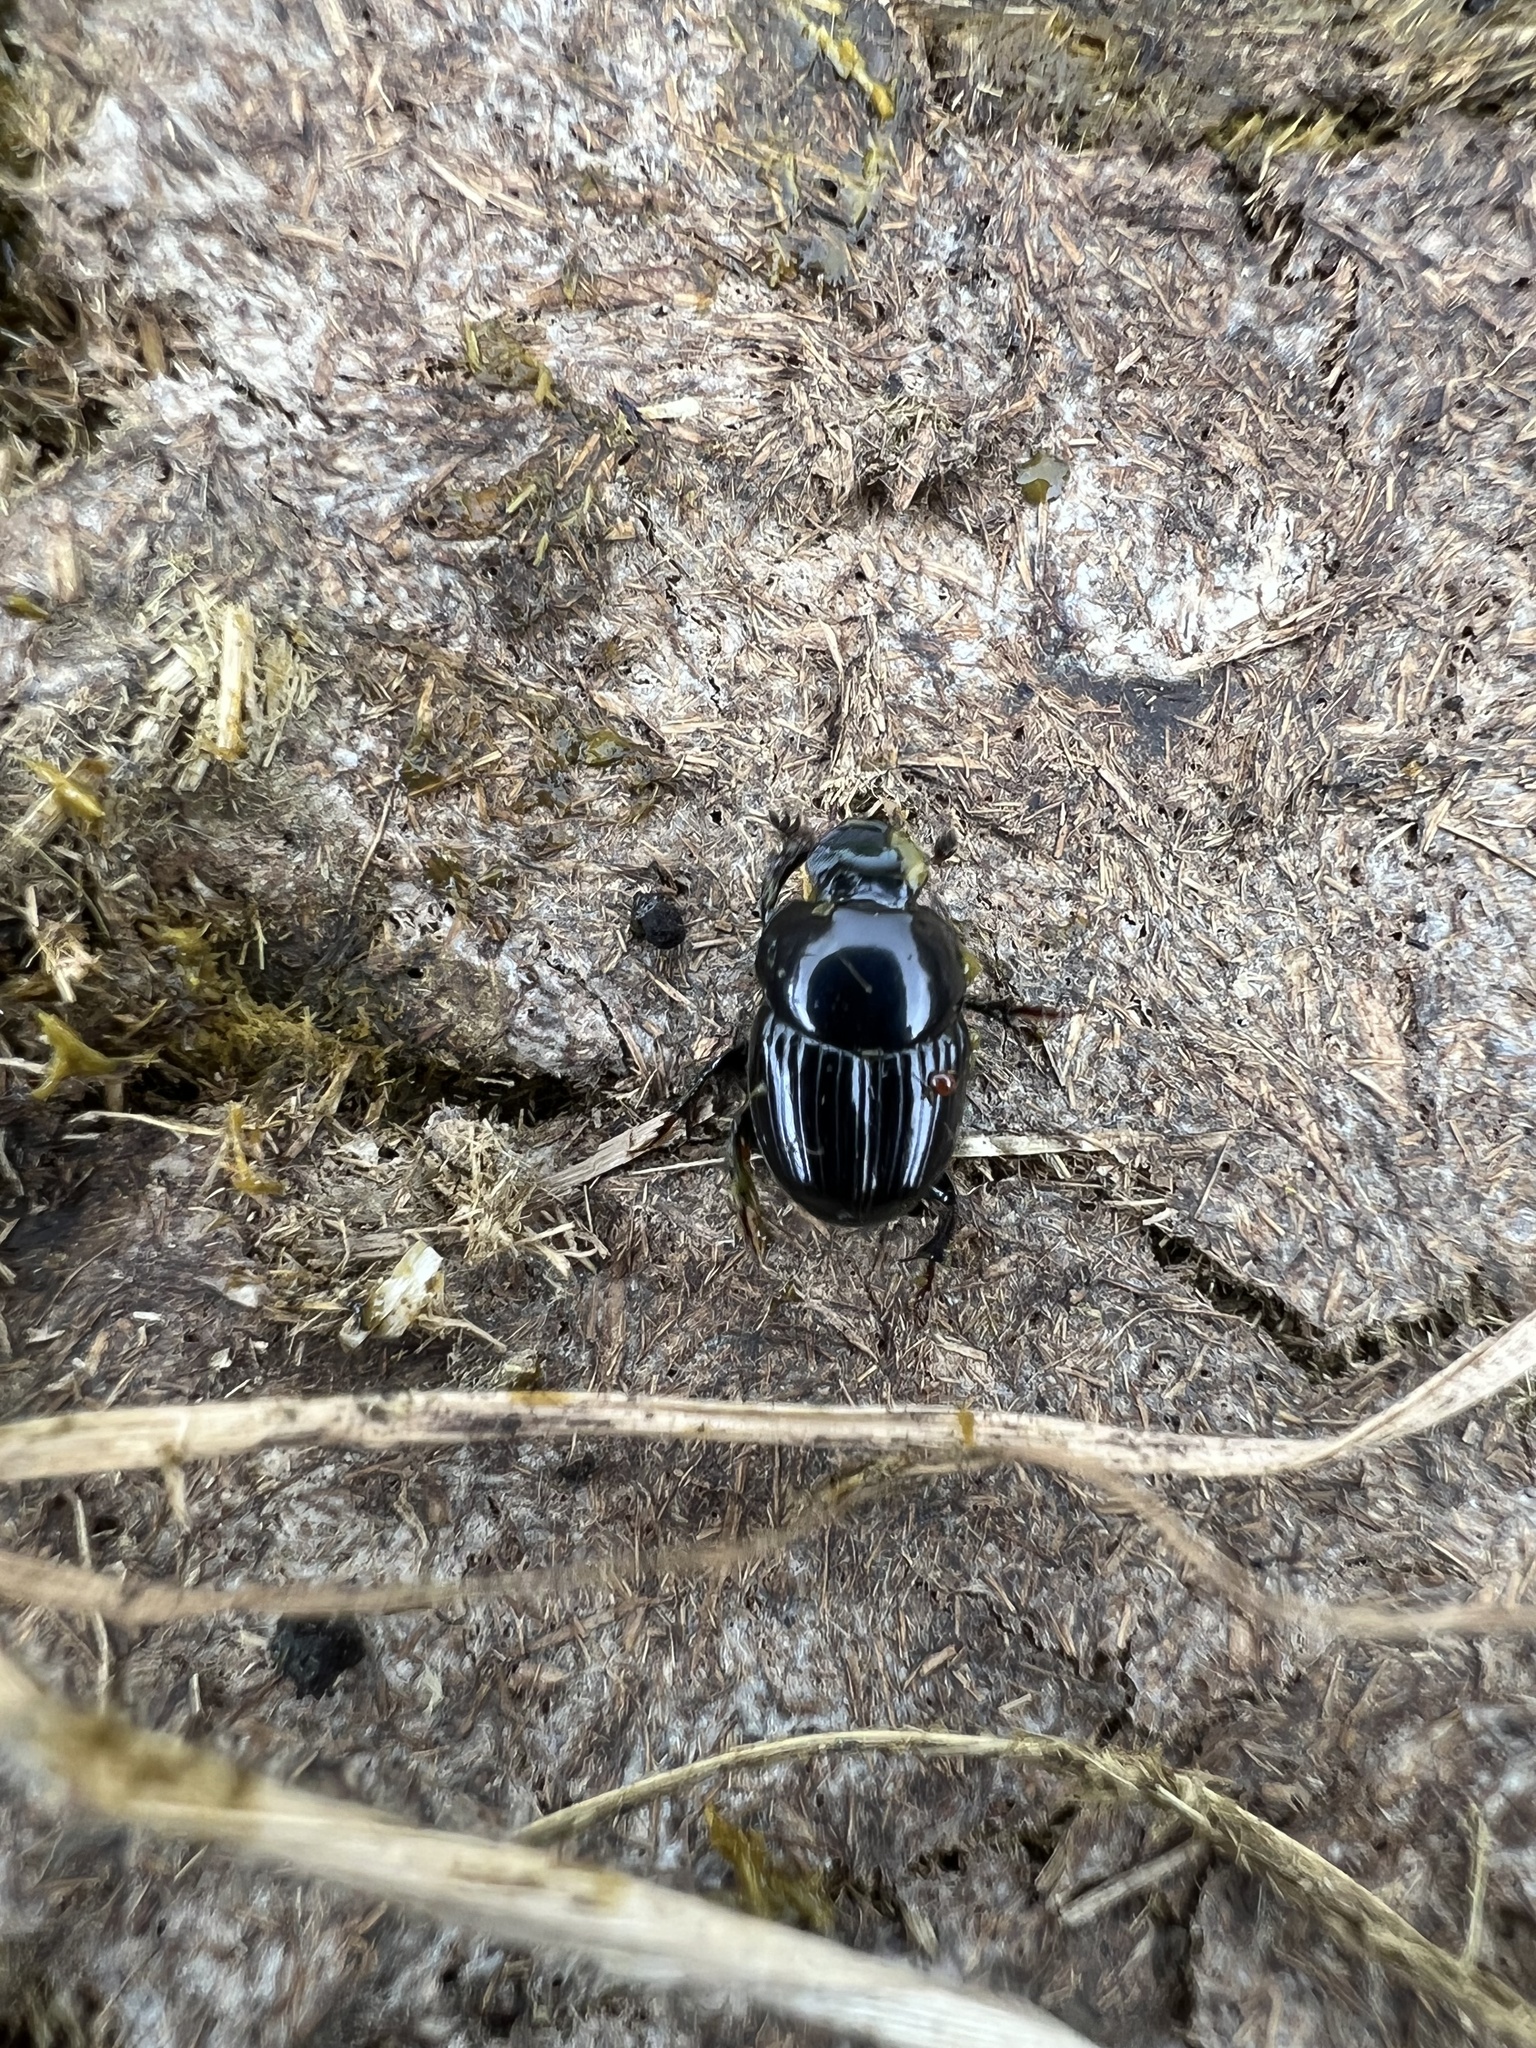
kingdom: Animalia
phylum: Arthropoda
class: Insecta
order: Coleoptera
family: Scarabaeidae
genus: Onthophagus
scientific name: Onthophagus curvicornis
